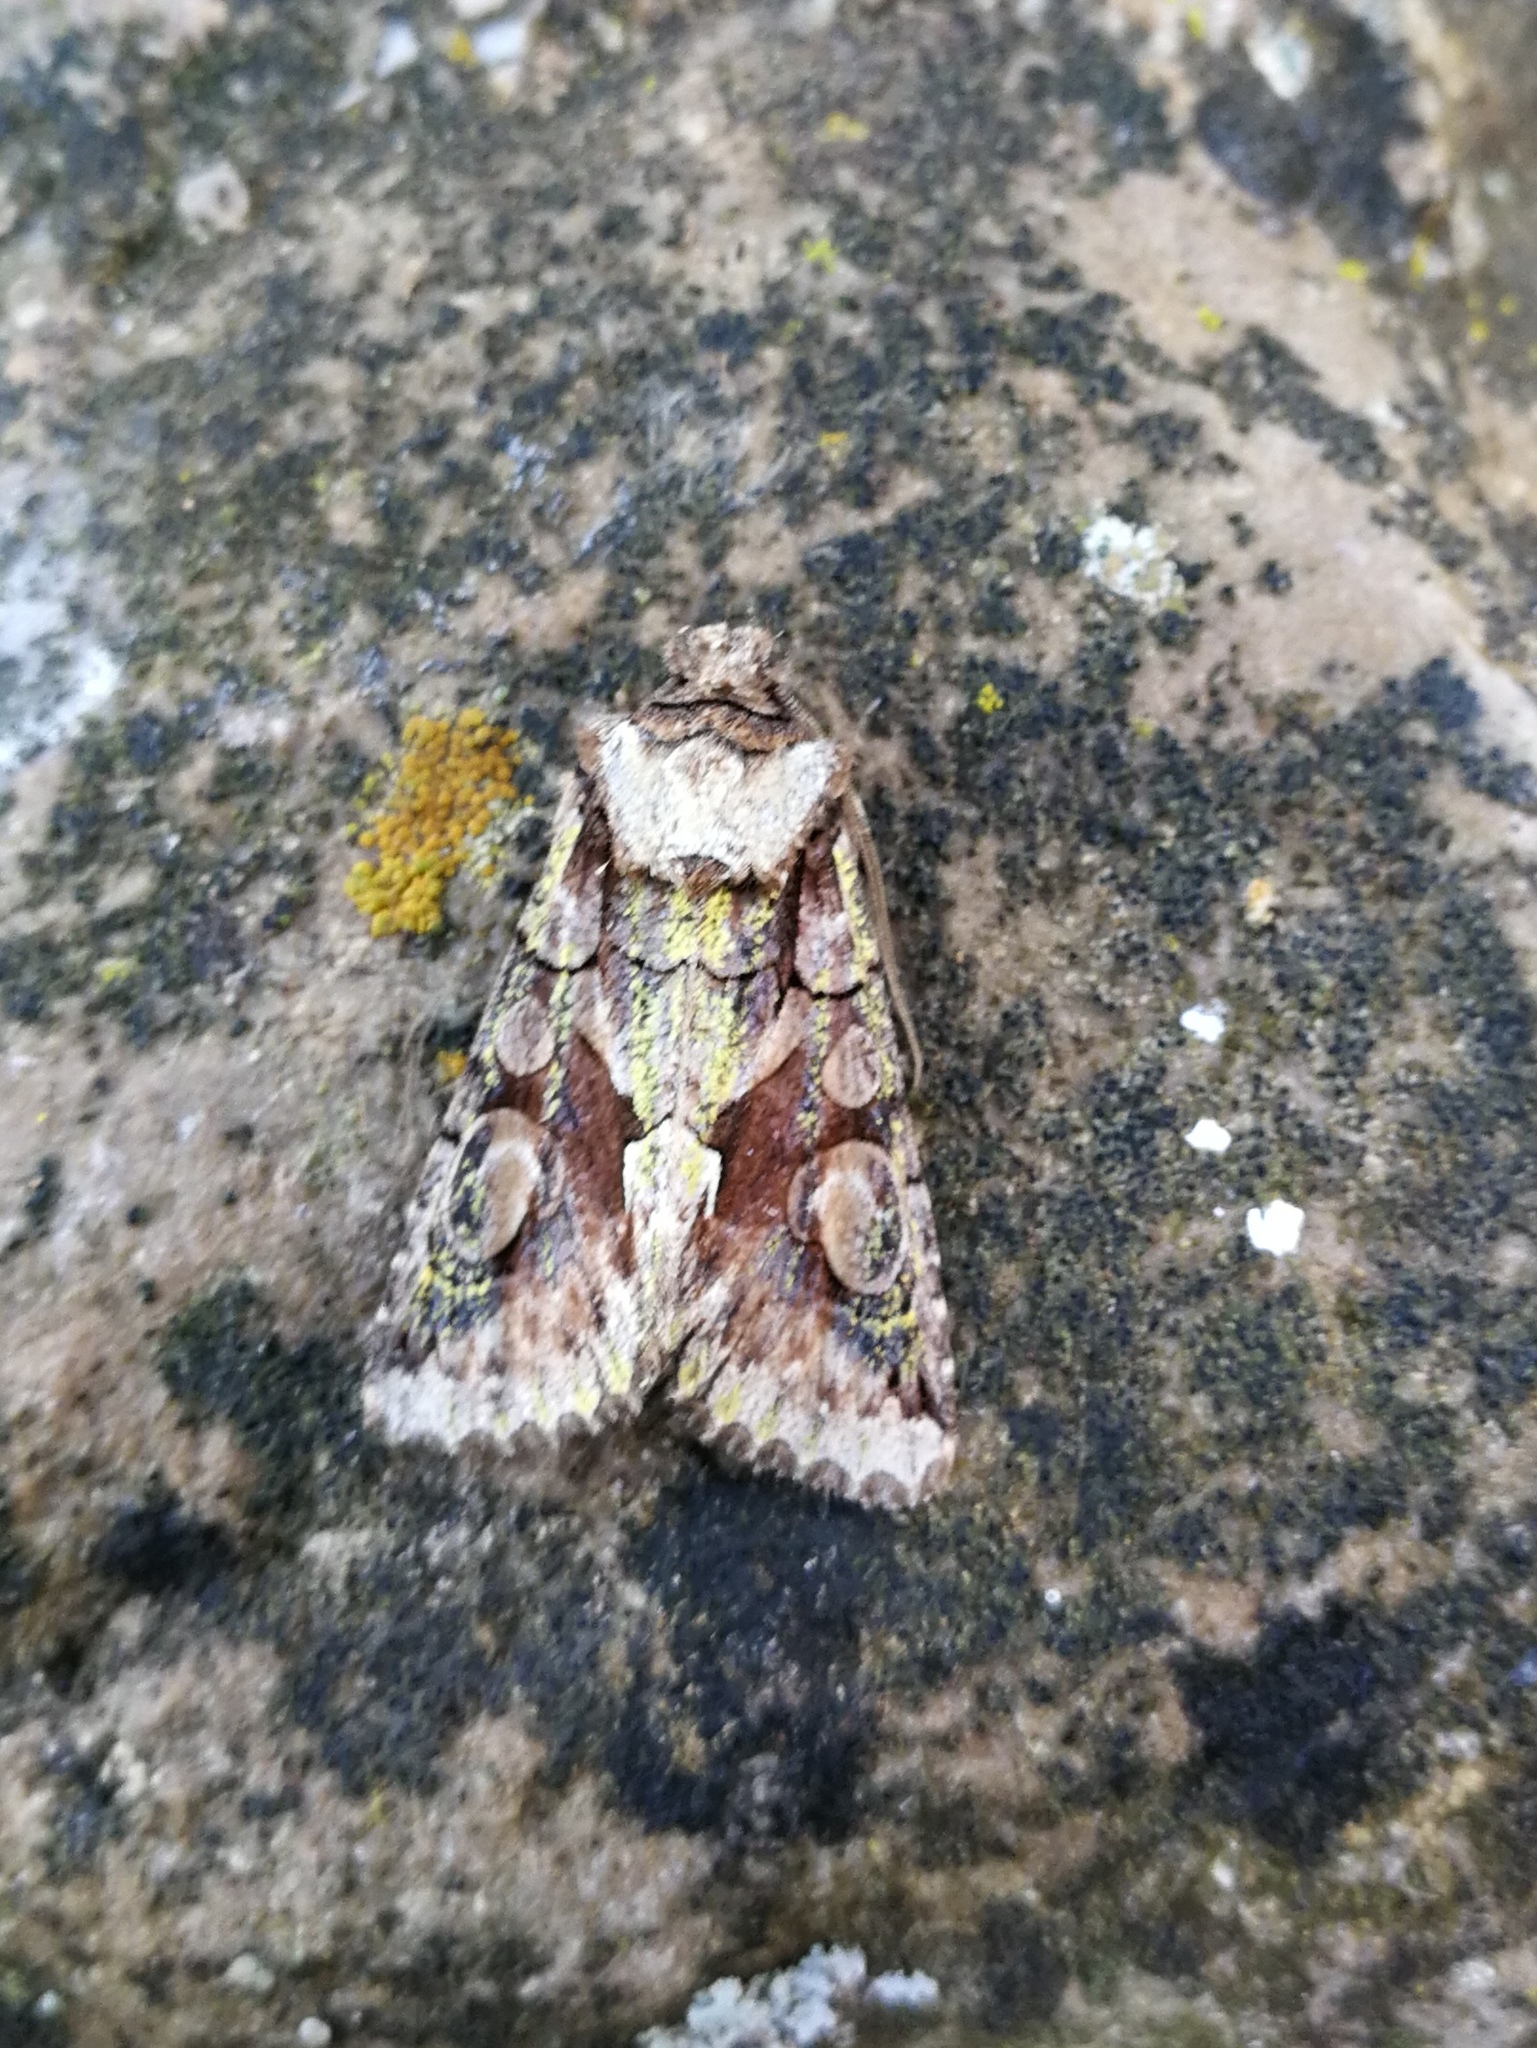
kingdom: Animalia
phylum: Arthropoda
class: Insecta
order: Lepidoptera
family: Noctuidae
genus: Allophyes
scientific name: Allophyes alfaroi
